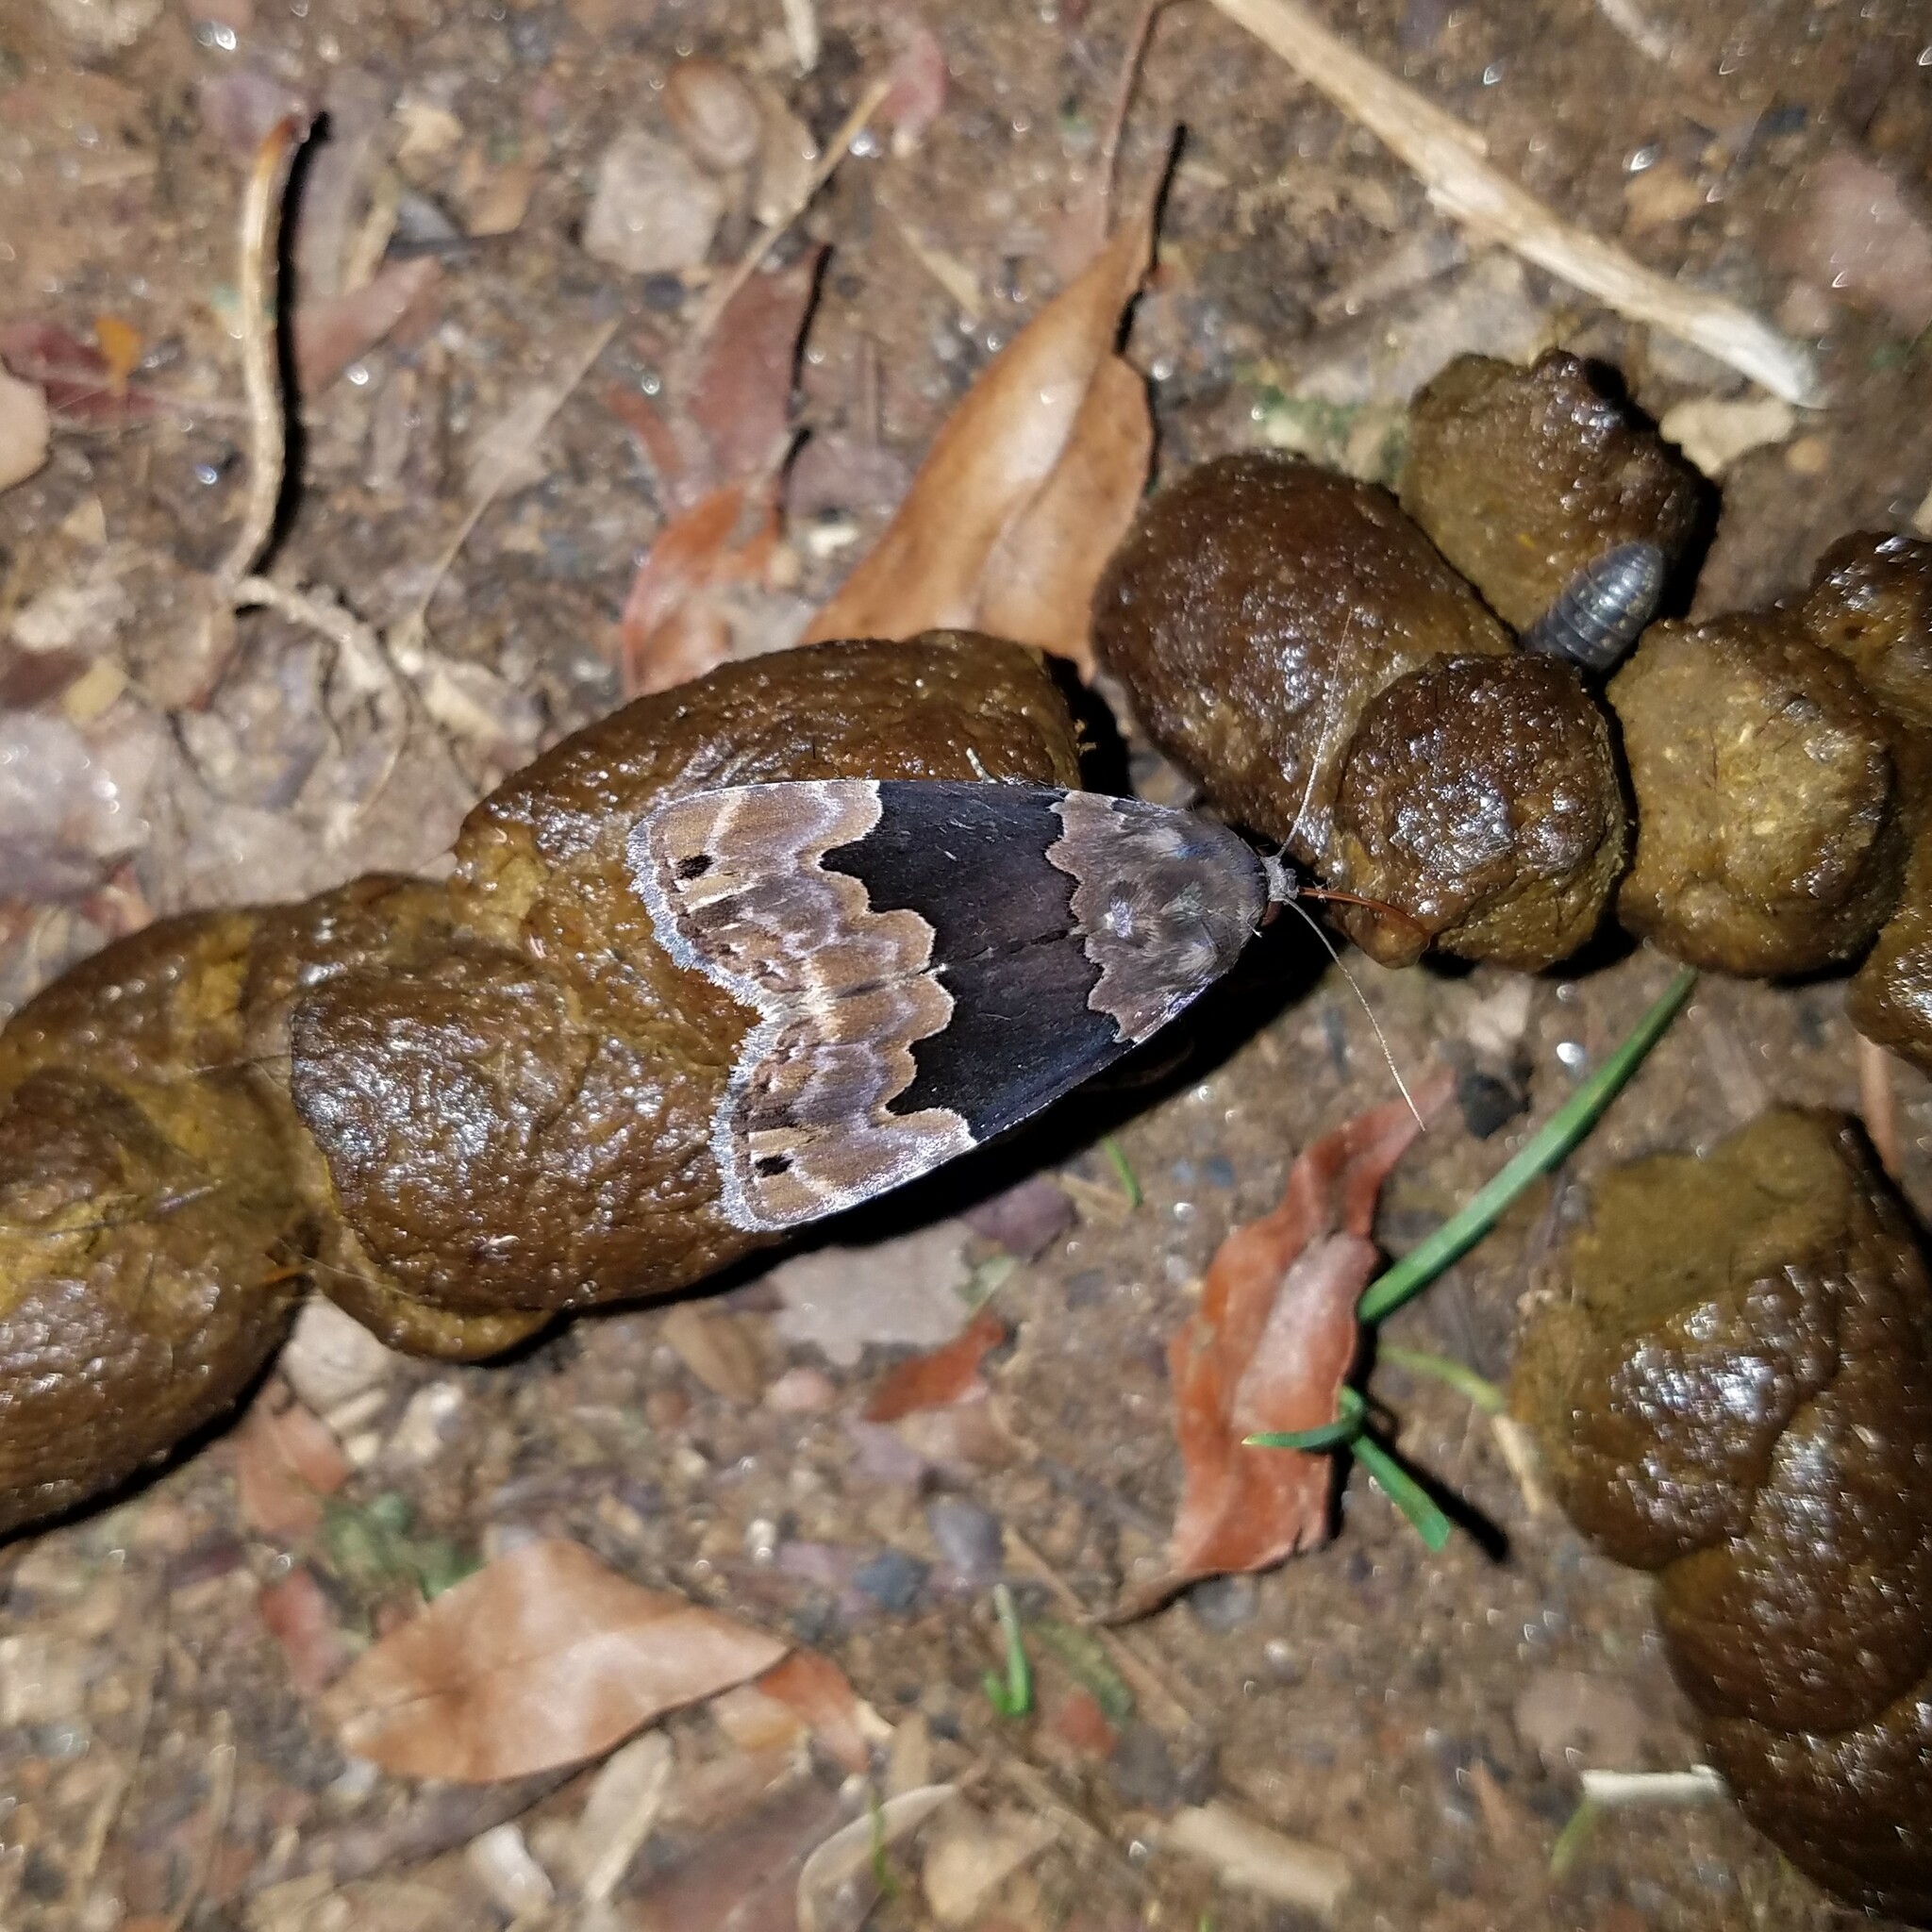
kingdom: Animalia
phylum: Arthropoda
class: Insecta
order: Lepidoptera
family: Erebidae
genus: Dinumma
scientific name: Dinumma deponens
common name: Purplish moth
